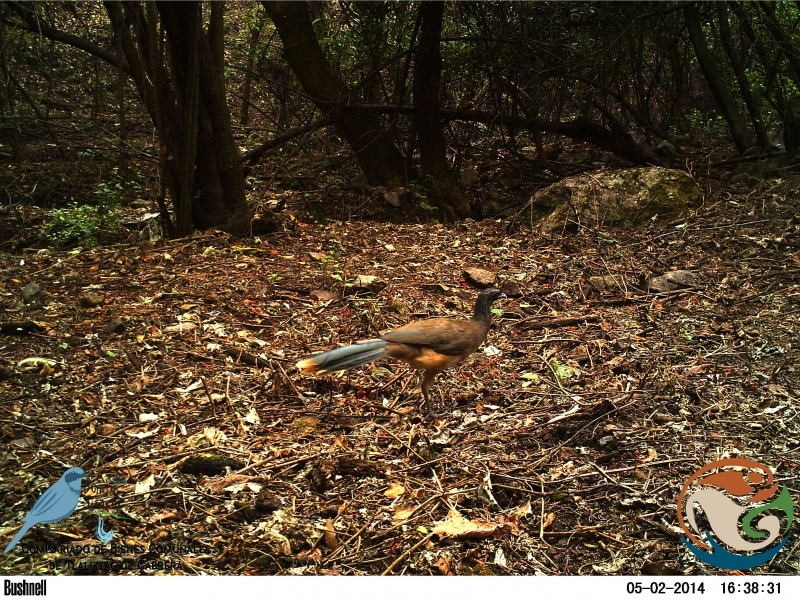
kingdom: Animalia
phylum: Chordata
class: Aves
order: Galliformes
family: Cracidae
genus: Ortalis
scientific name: Ortalis poliocephala
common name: West mexican chachalaca
